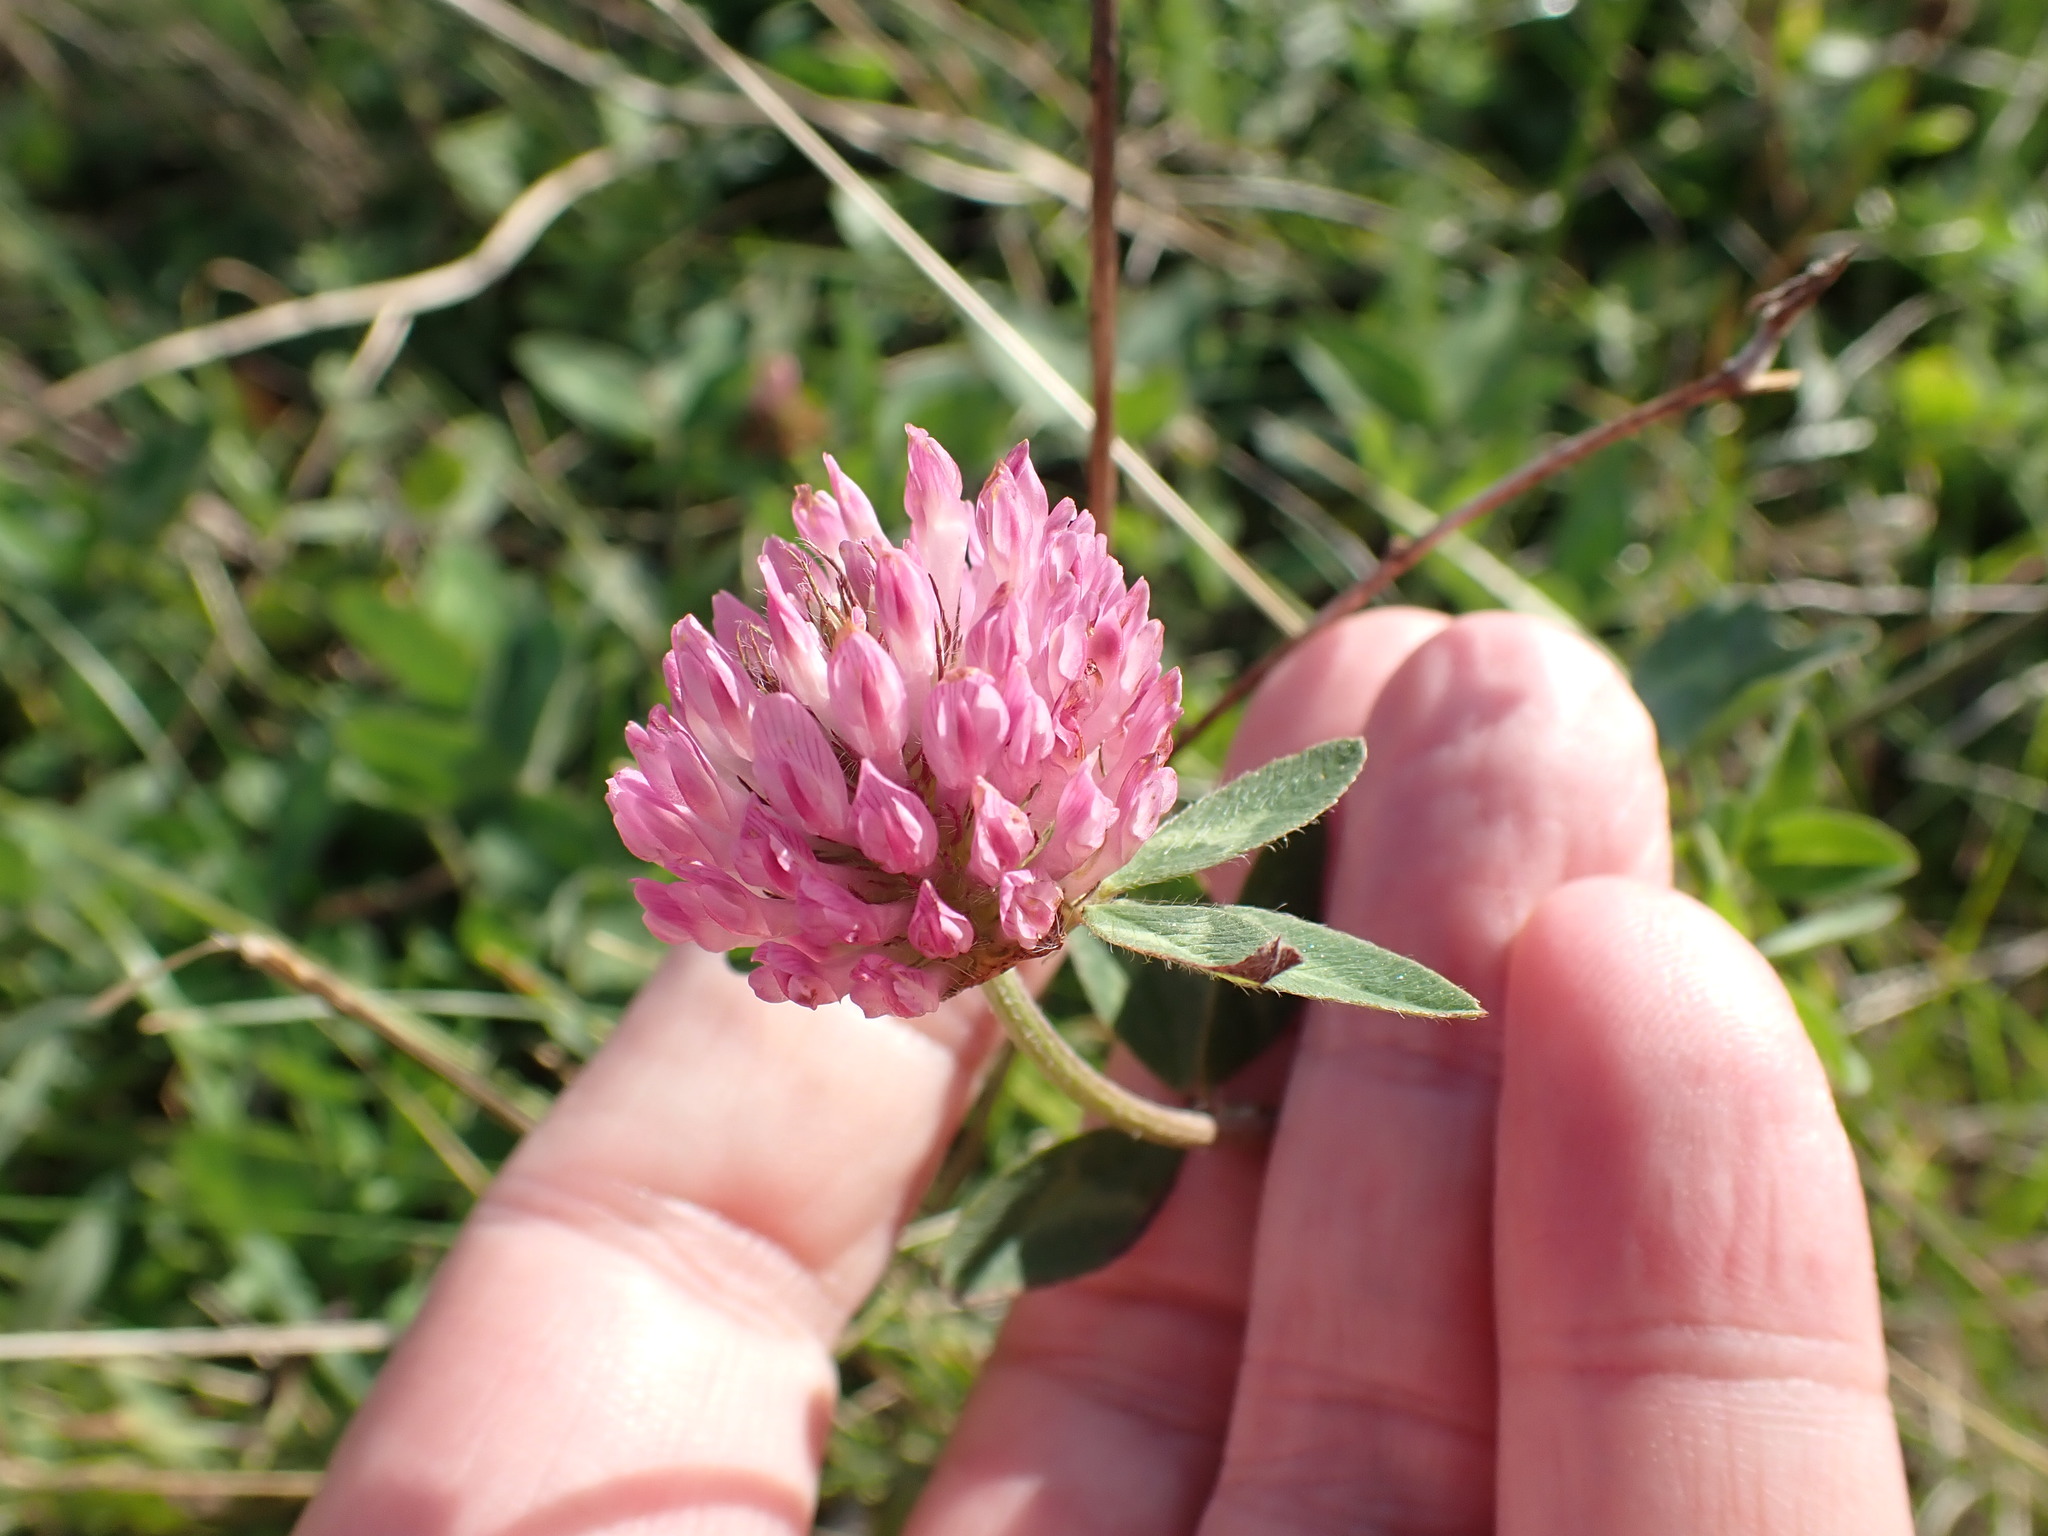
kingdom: Plantae
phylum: Tracheophyta
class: Magnoliopsida
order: Fabales
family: Fabaceae
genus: Trifolium
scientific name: Trifolium pratense
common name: Red clover
